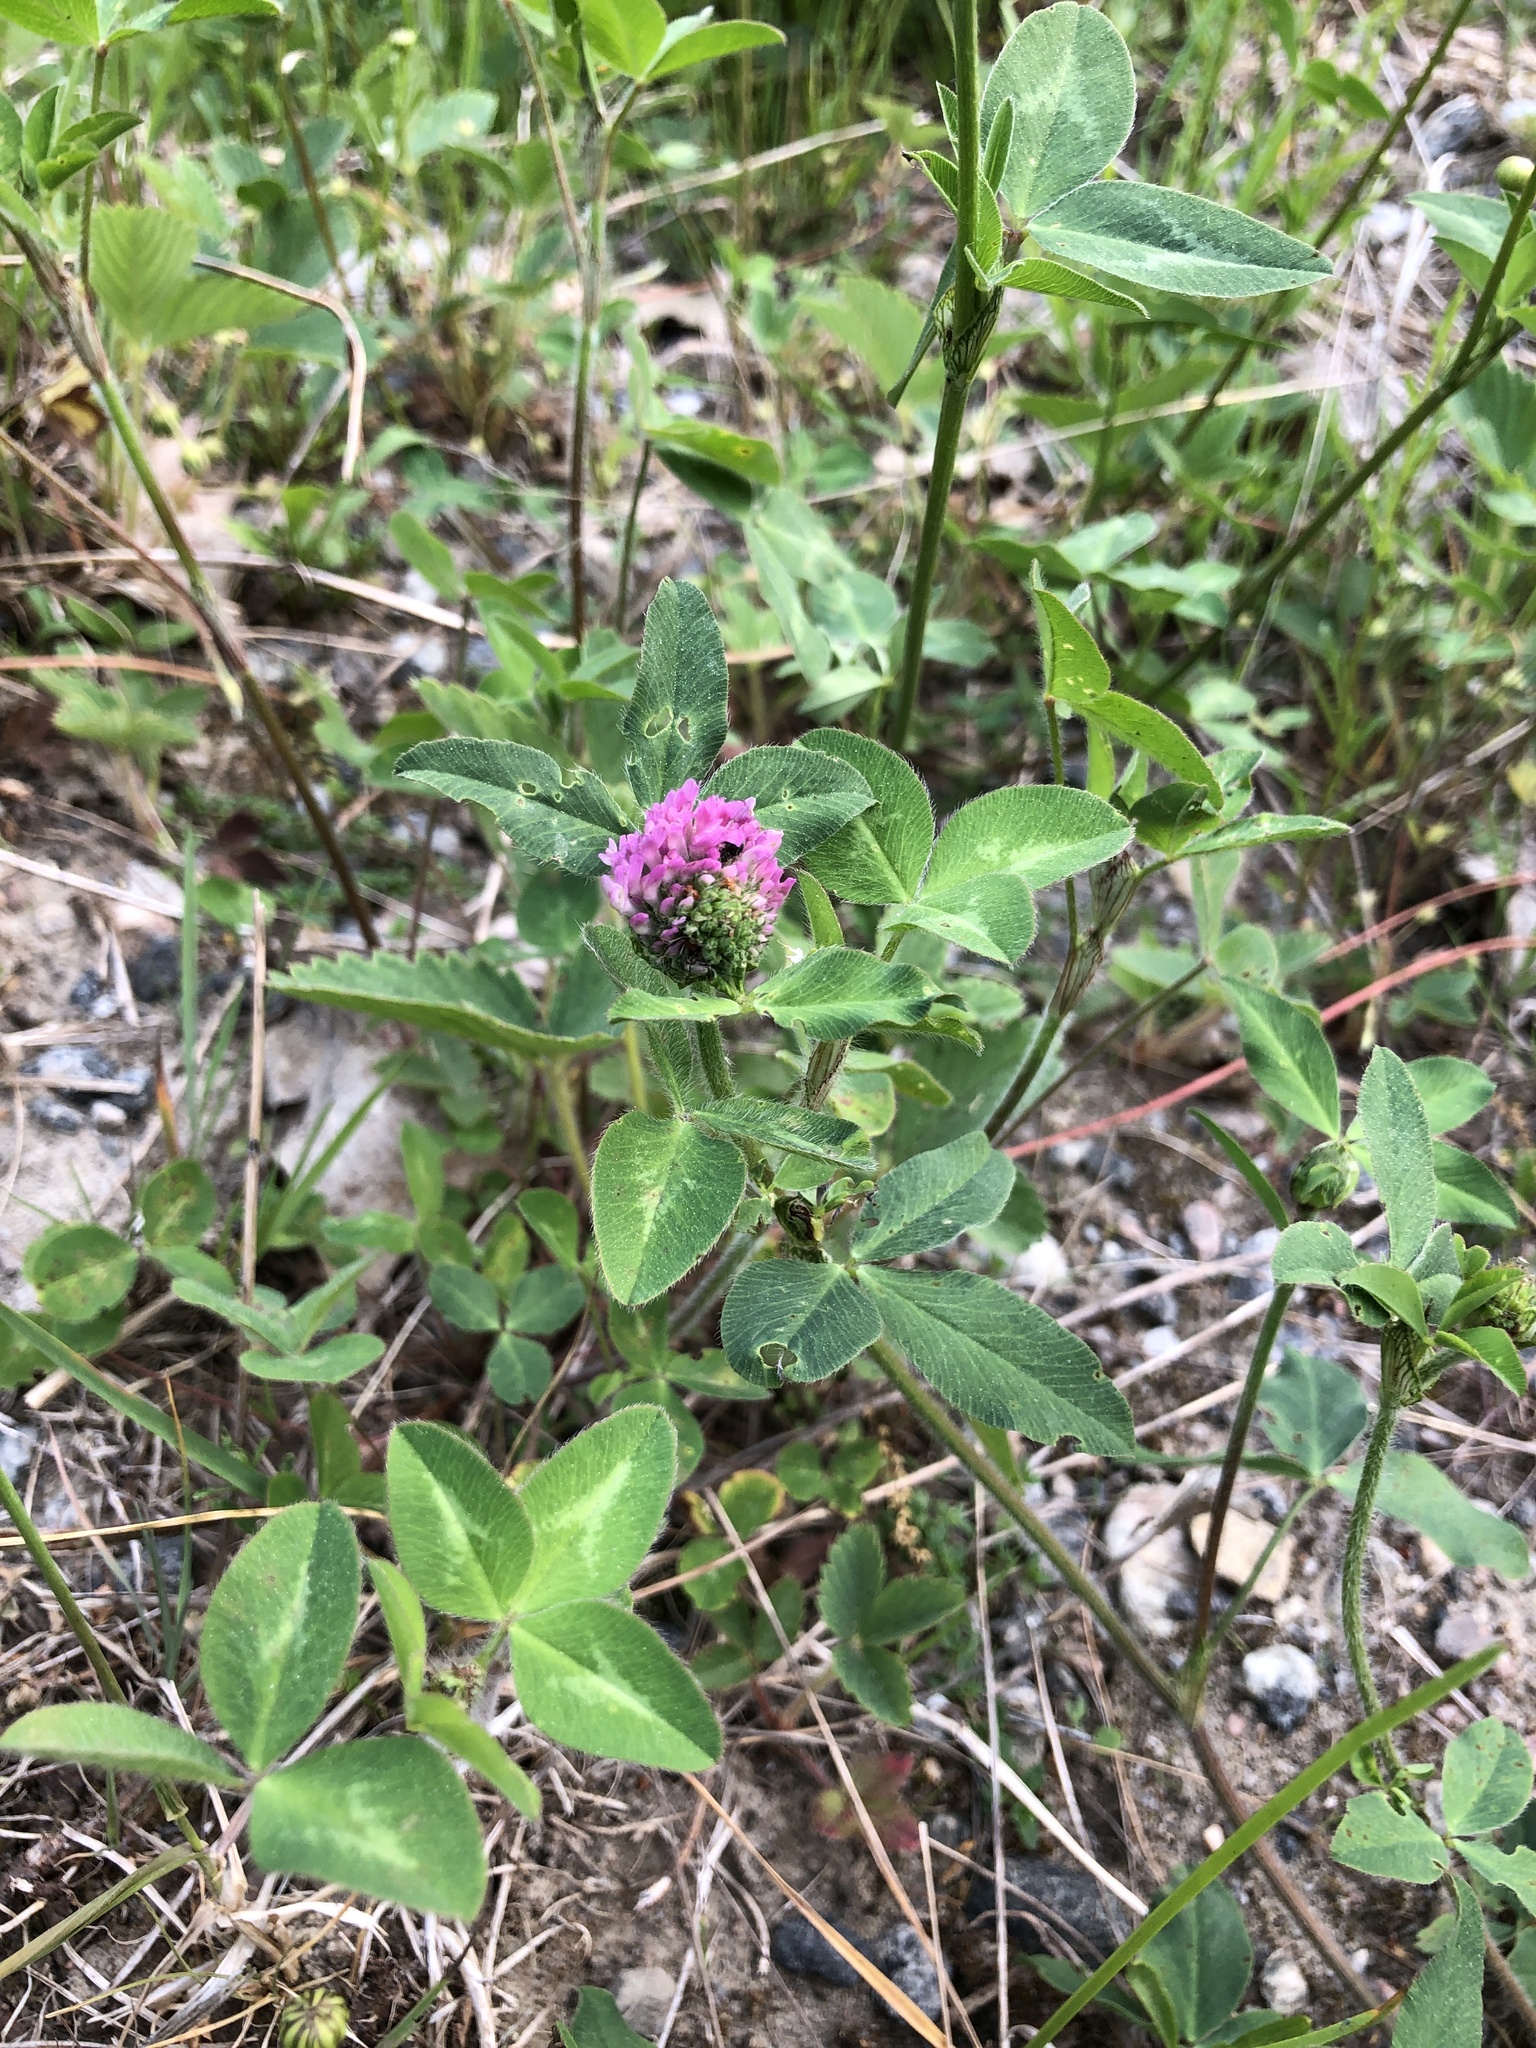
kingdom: Plantae
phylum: Tracheophyta
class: Magnoliopsida
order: Fabales
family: Fabaceae
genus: Trifolium
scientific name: Trifolium pratense
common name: Red clover
